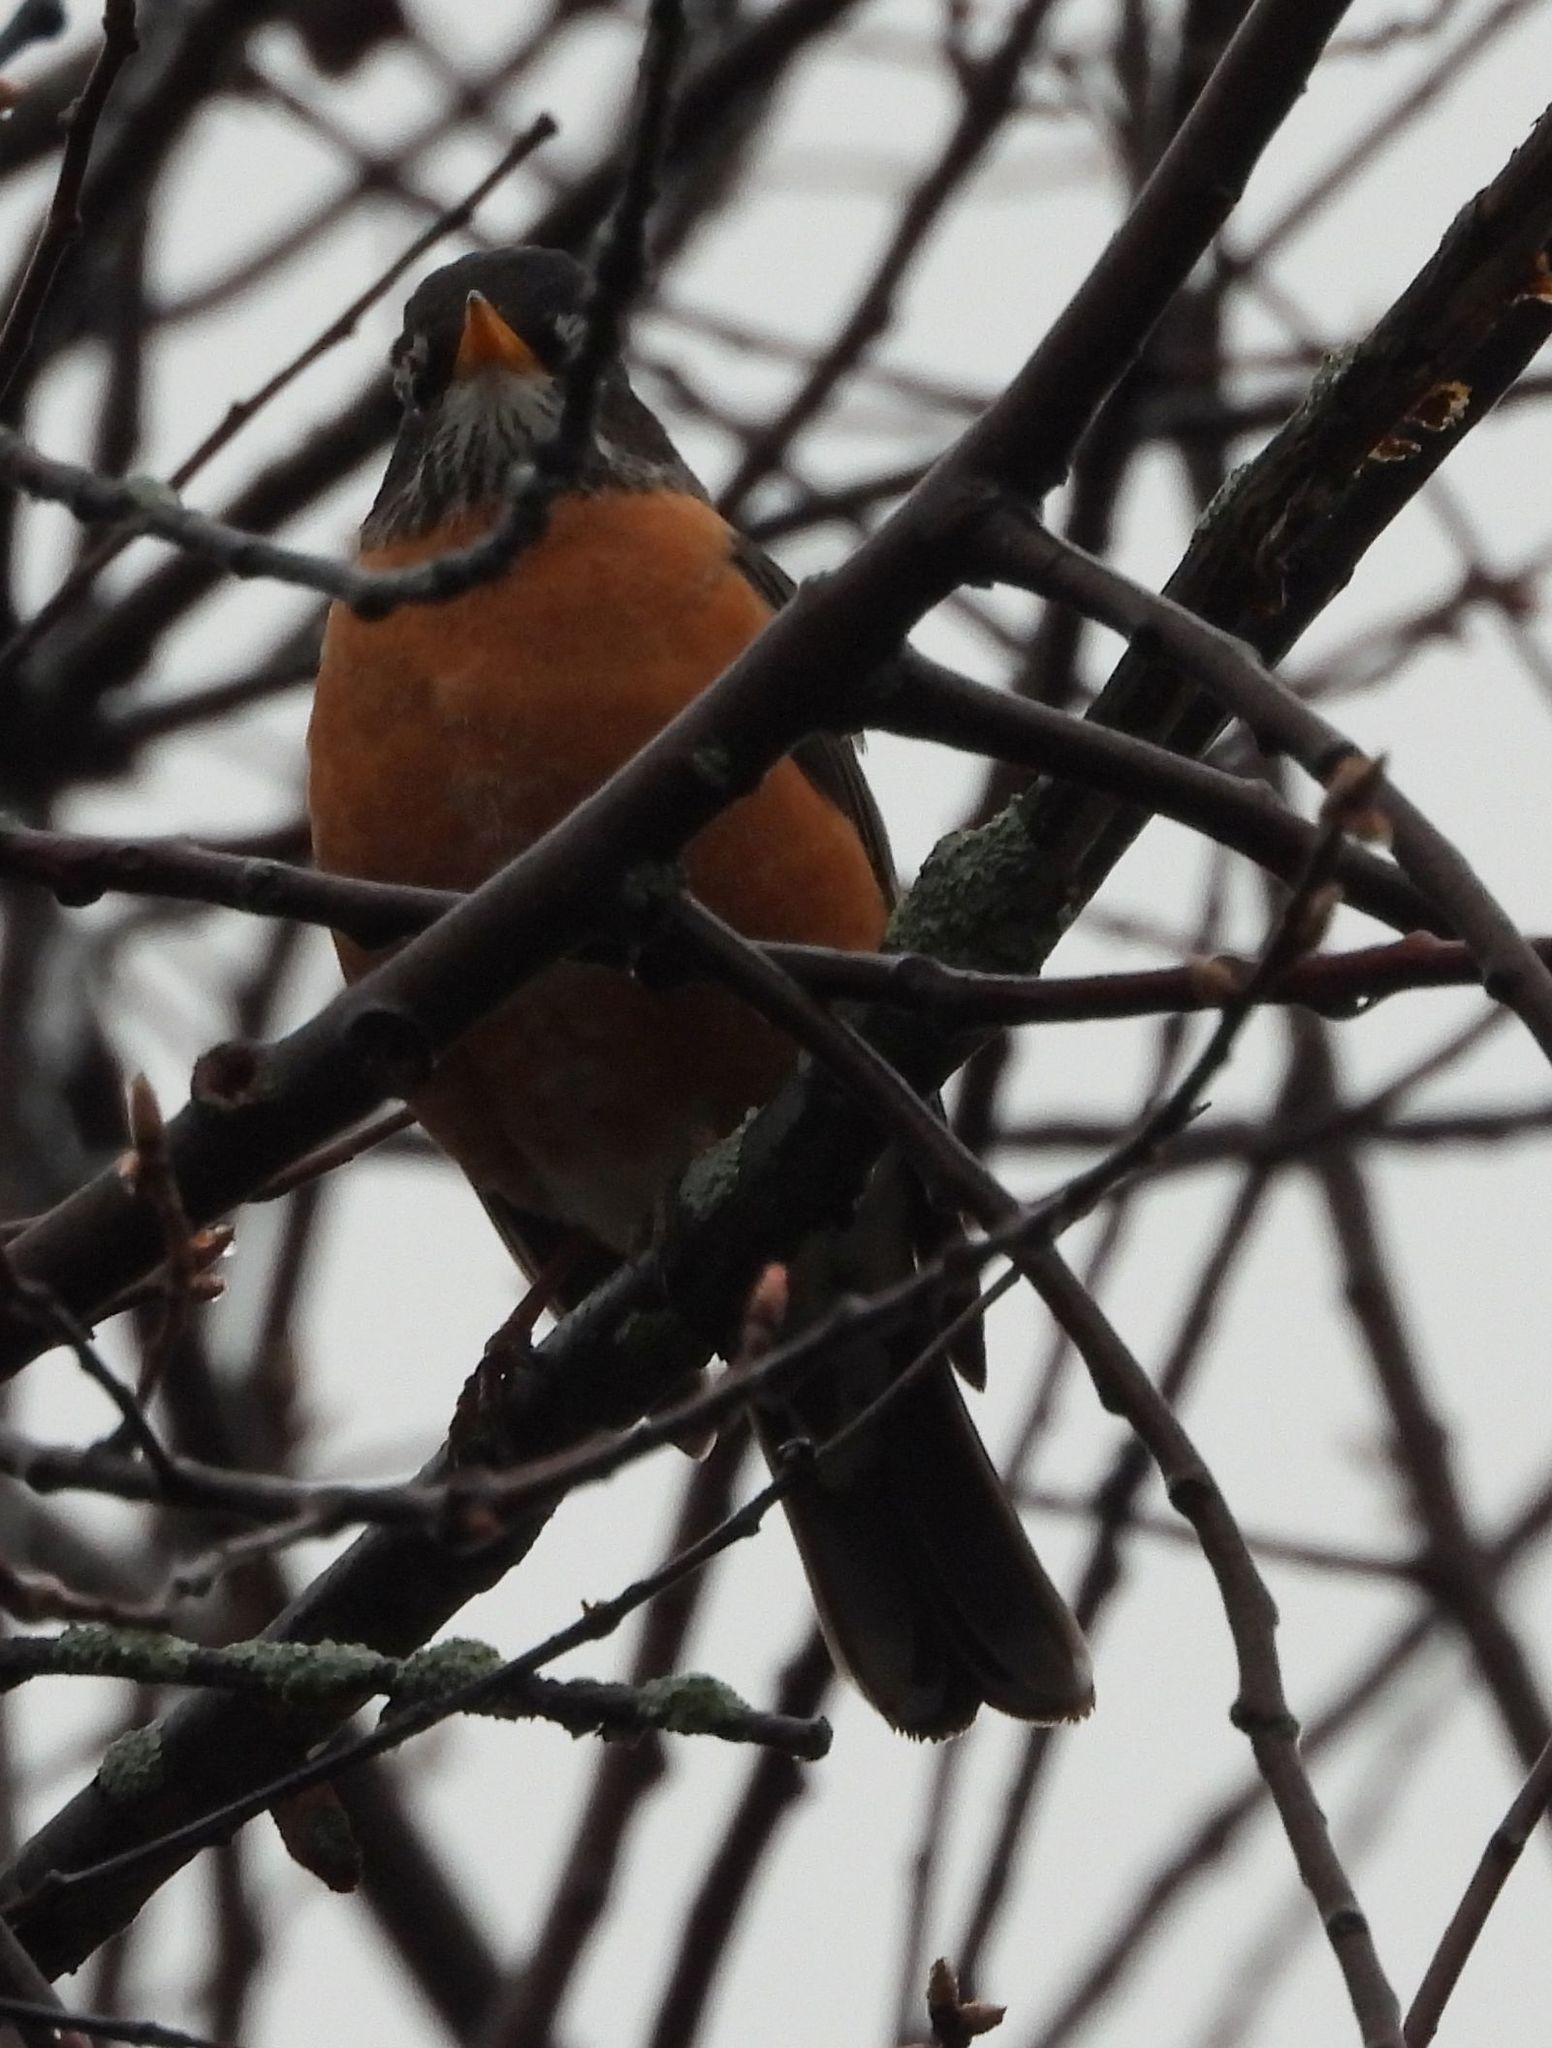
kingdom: Animalia
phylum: Chordata
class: Aves
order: Passeriformes
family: Turdidae
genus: Turdus
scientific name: Turdus migratorius
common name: American robin
